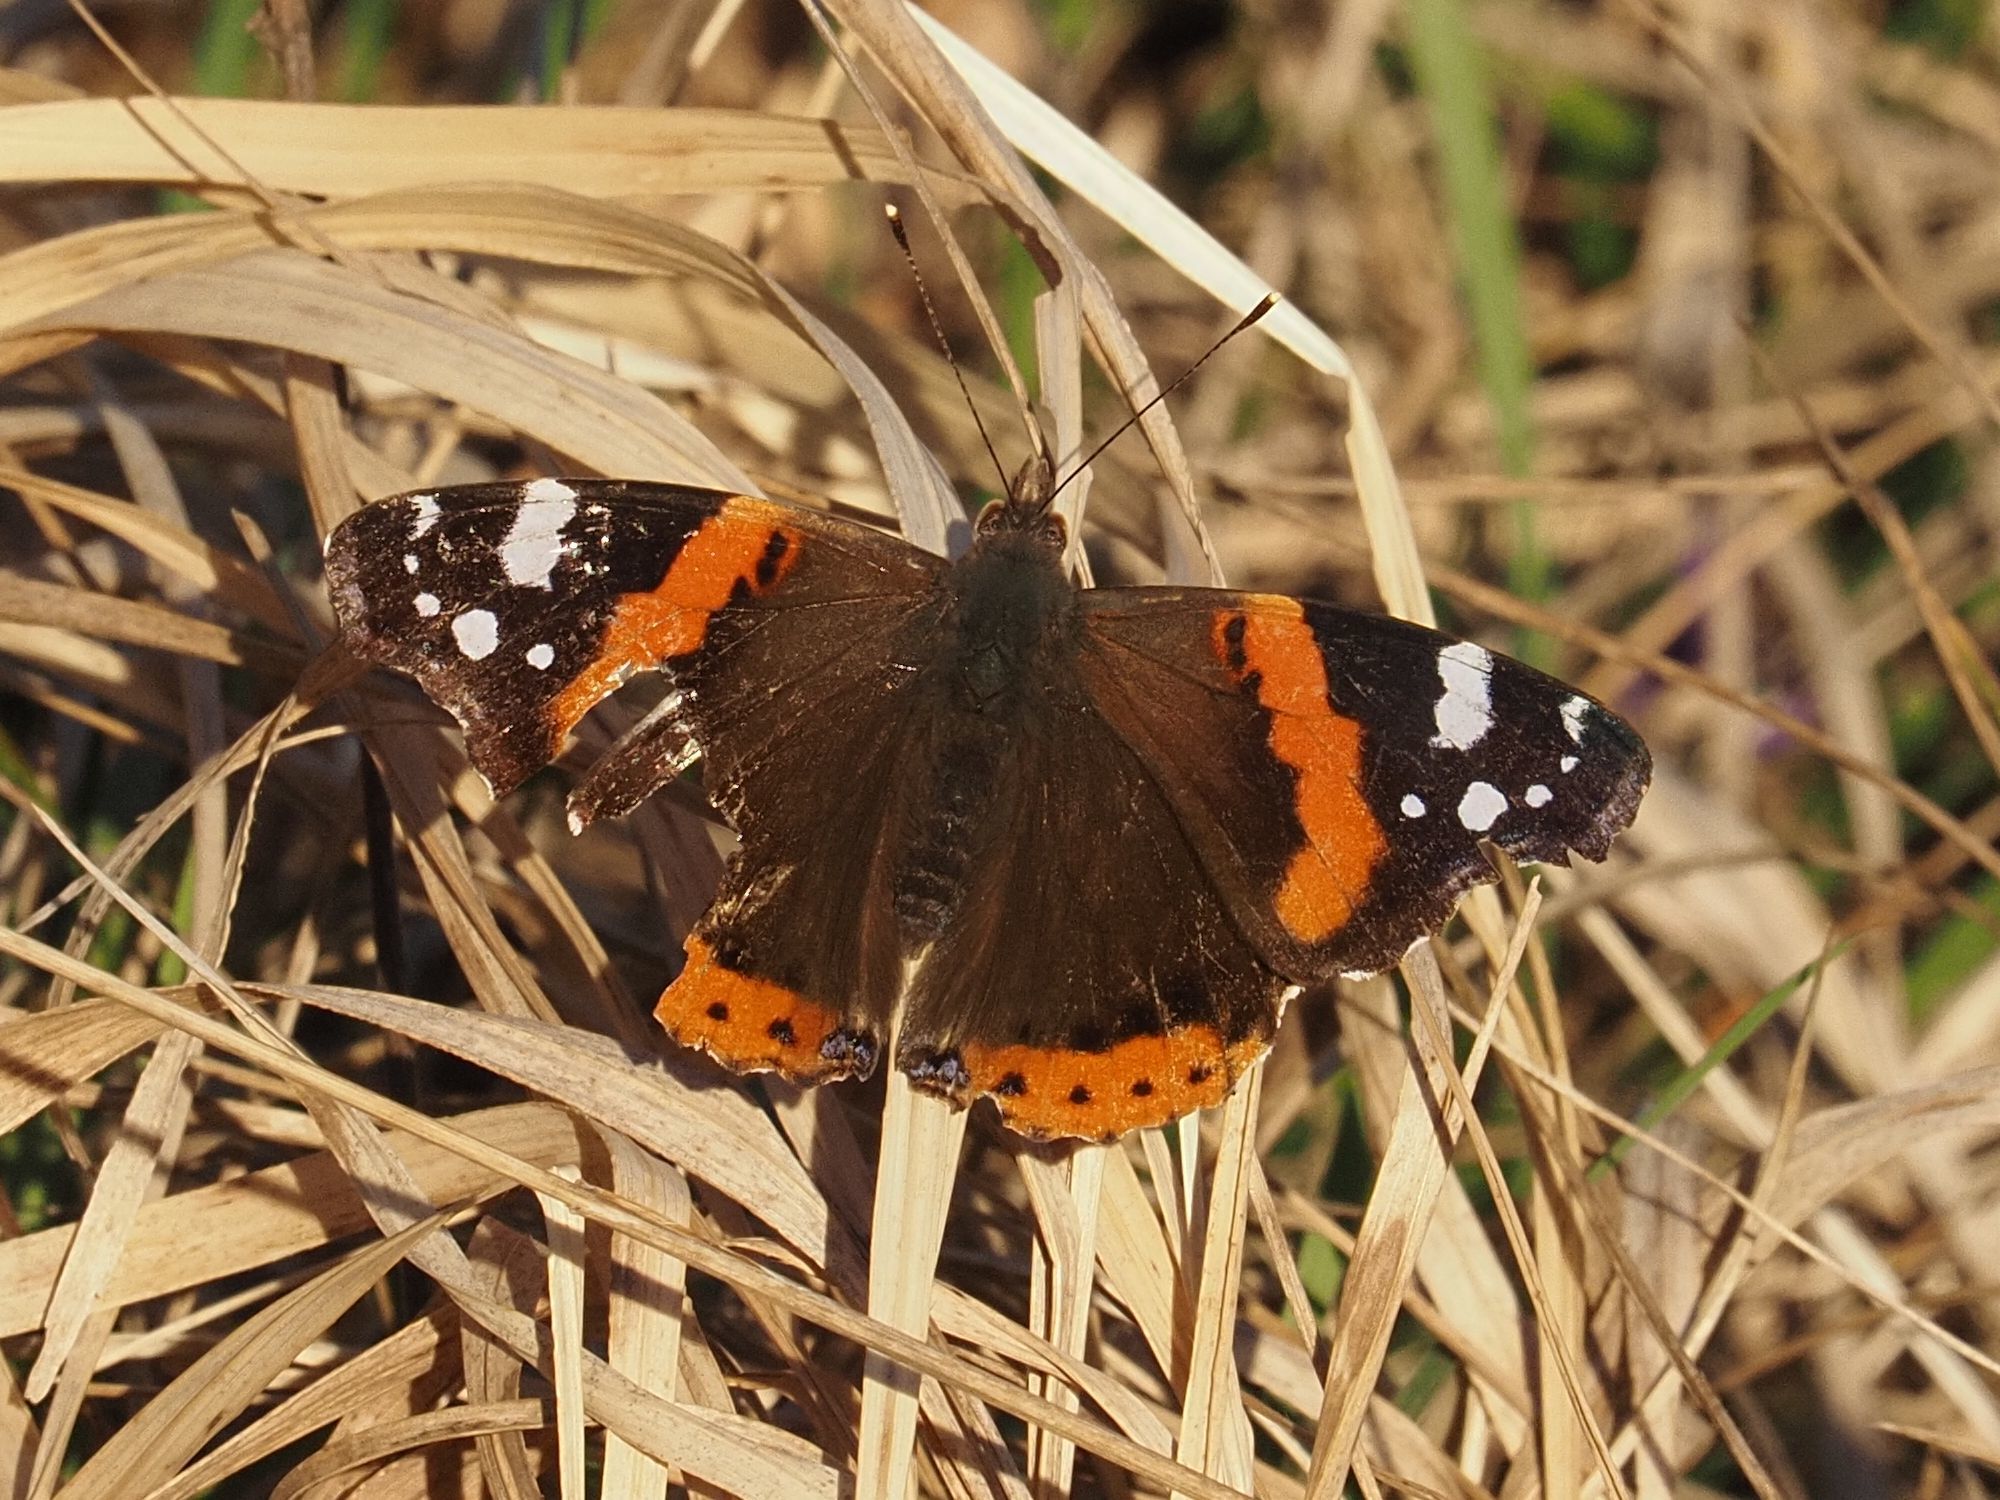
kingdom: Animalia
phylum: Arthropoda
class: Insecta
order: Lepidoptera
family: Nymphalidae
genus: Vanessa
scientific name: Vanessa atalanta
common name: Red admiral
